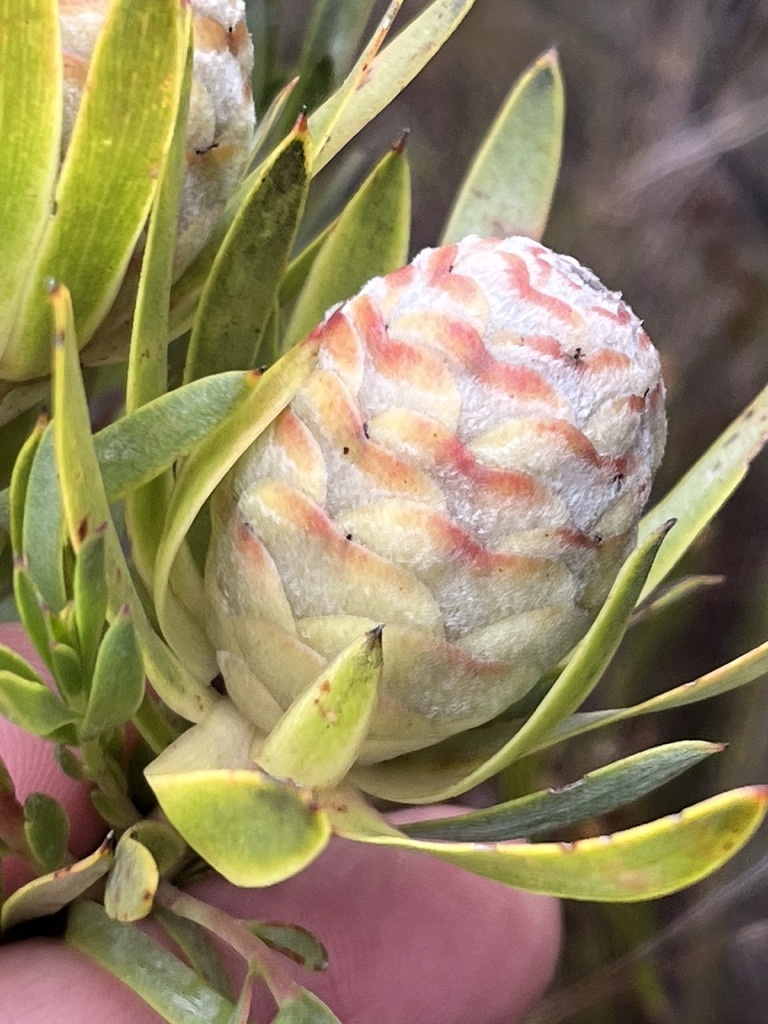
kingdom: Plantae
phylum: Tracheophyta
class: Magnoliopsida
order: Proteales
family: Proteaceae
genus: Leucadendron
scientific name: Leucadendron meridianum
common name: Limestone conebush
